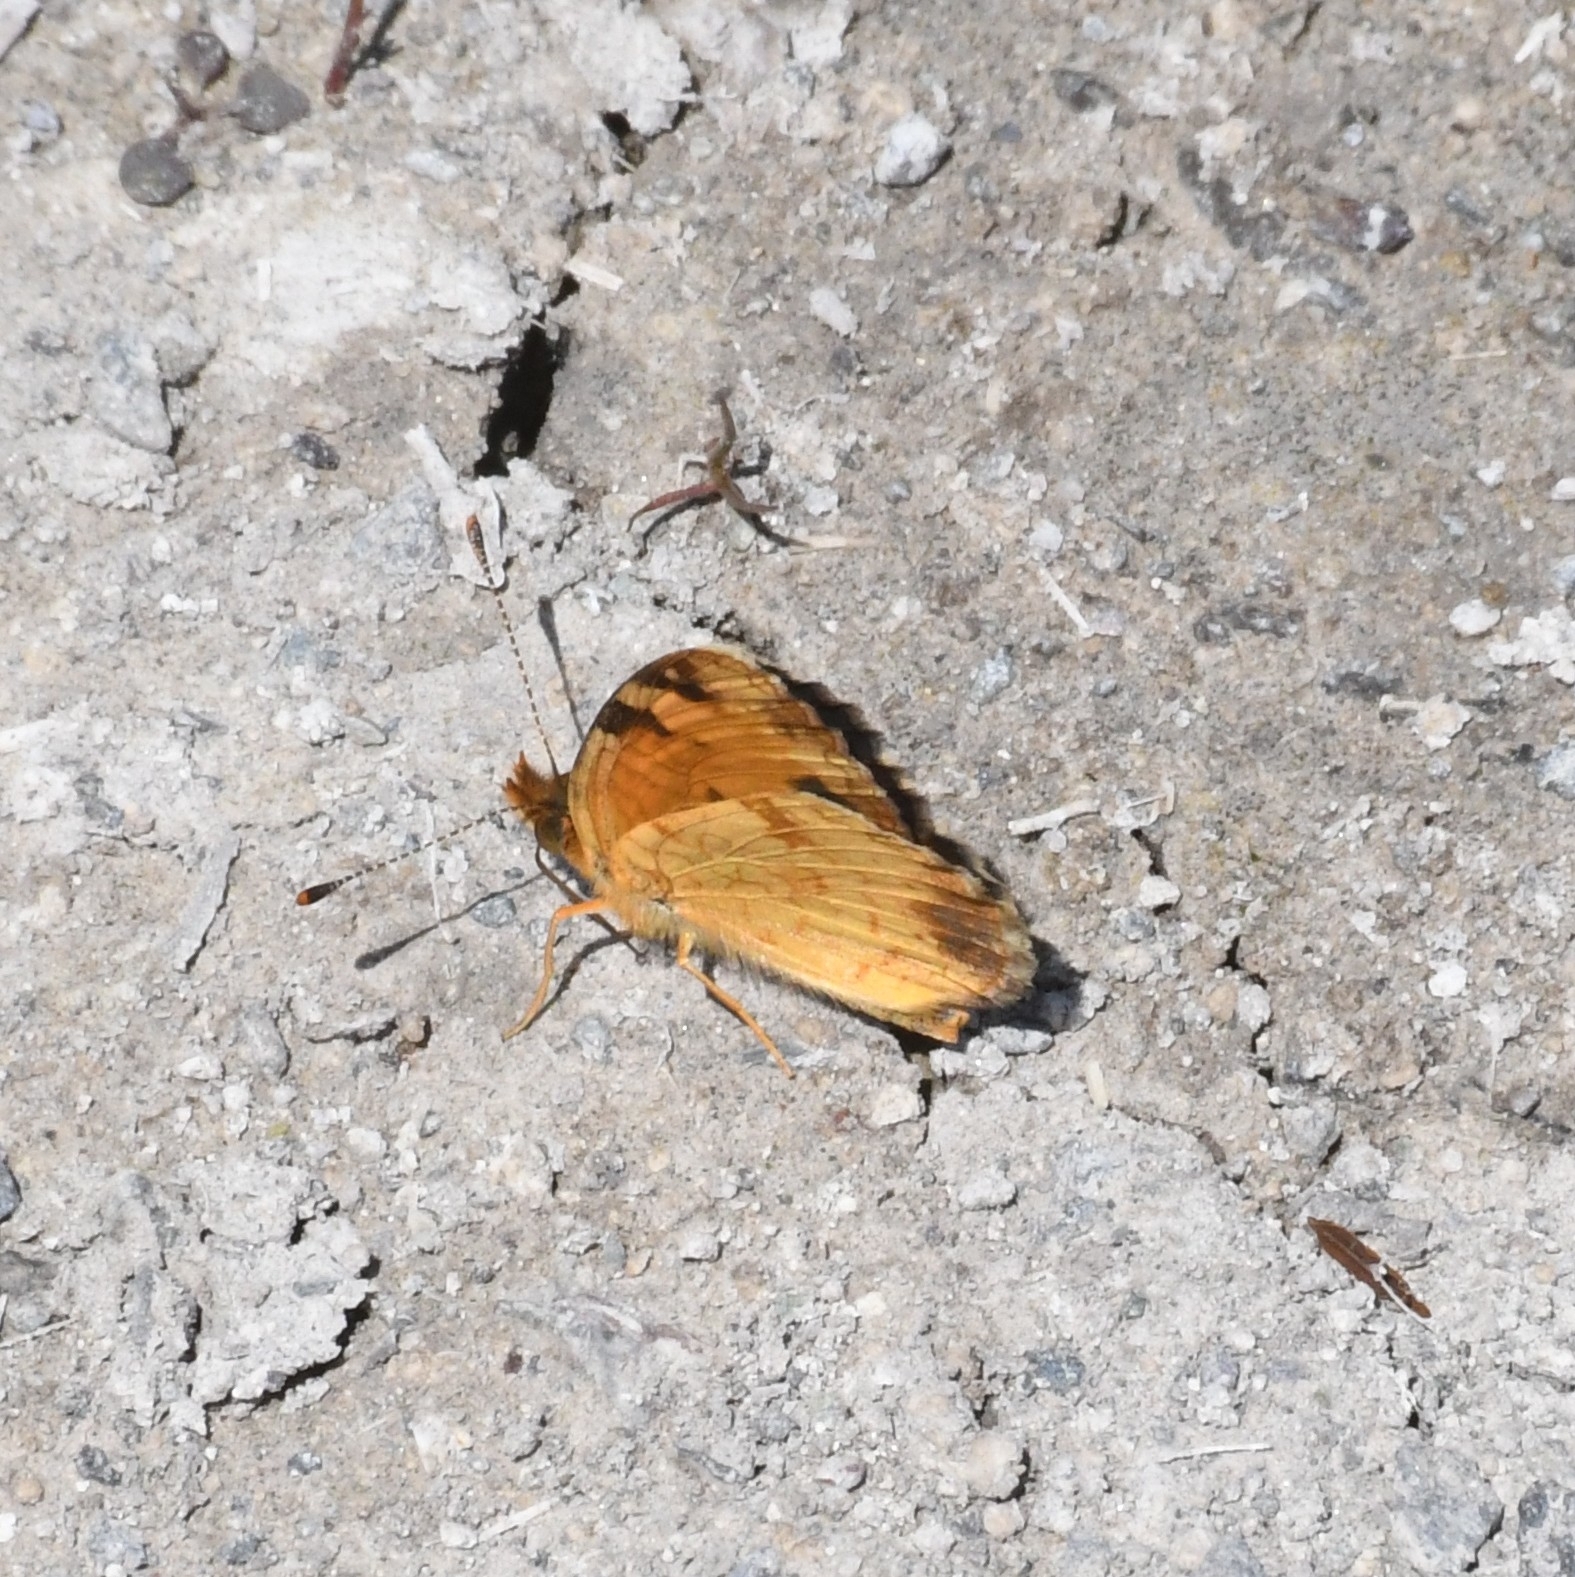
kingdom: Animalia
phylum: Arthropoda
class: Insecta
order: Lepidoptera
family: Nymphalidae
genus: Phyciodes
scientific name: Phyciodes tharos
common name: Pearl crescent
